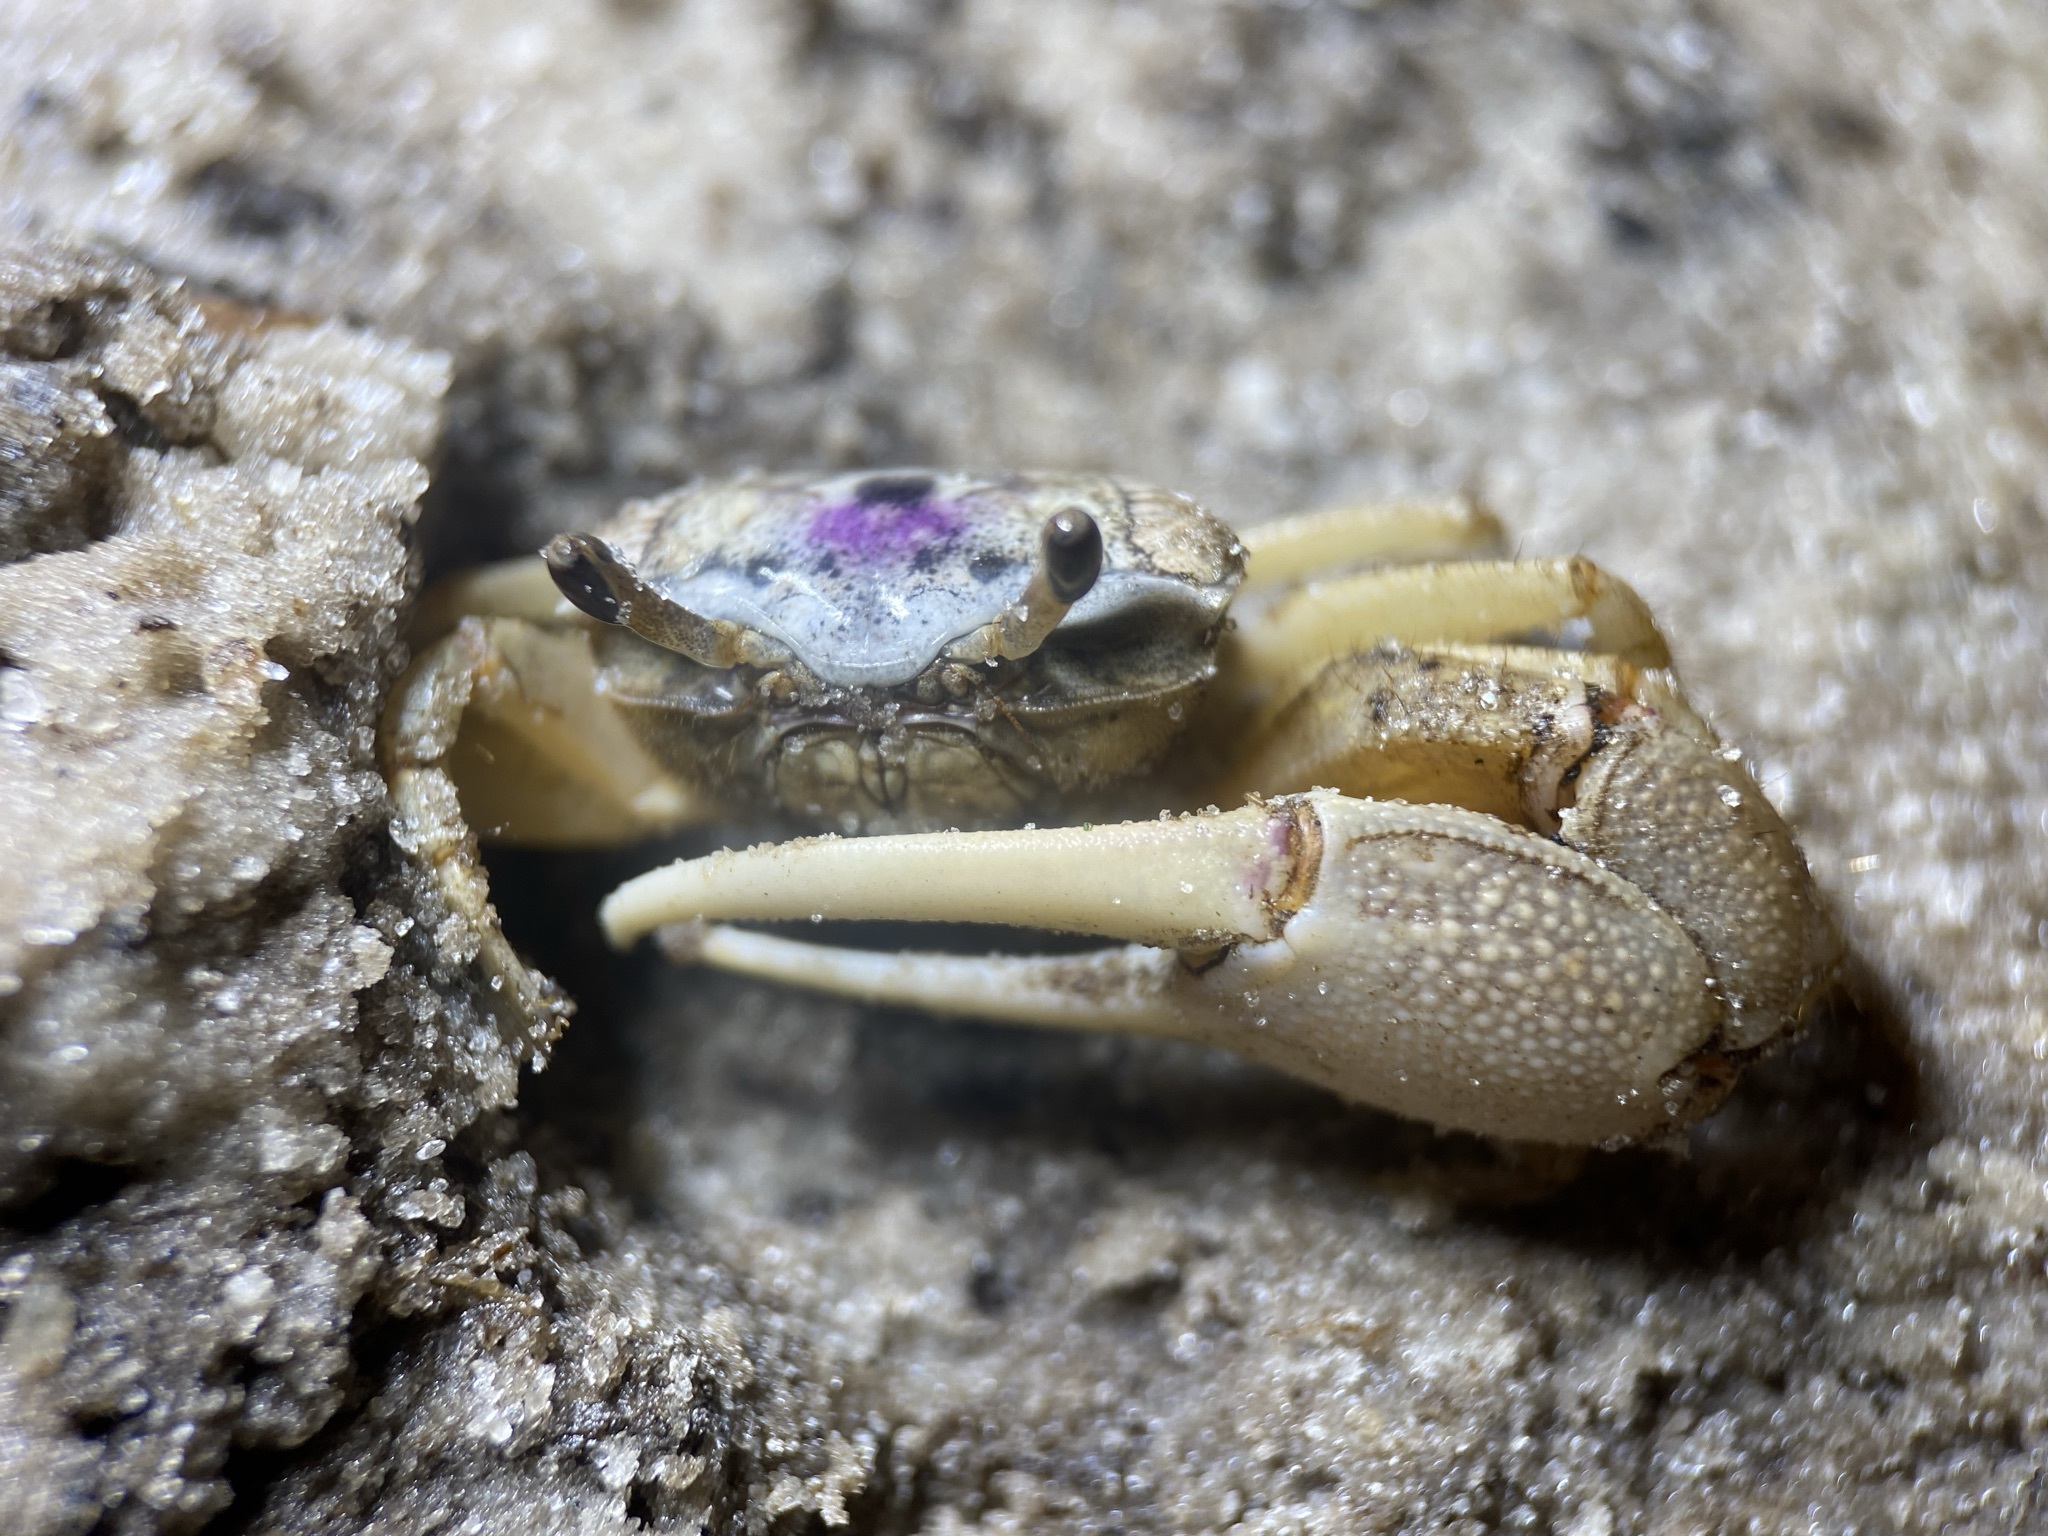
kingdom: Animalia
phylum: Arthropoda
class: Malacostraca
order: Decapoda
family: Ocypodidae
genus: Leptuca
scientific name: Leptuca pugilator
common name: Atlantic sand fiddler crab
